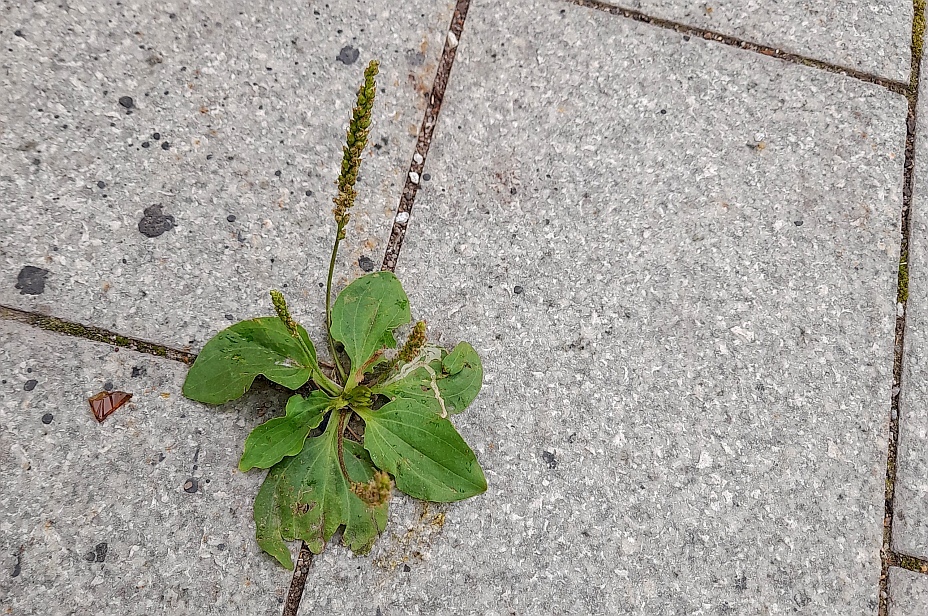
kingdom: Plantae
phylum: Tracheophyta
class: Magnoliopsida
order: Lamiales
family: Plantaginaceae
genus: Plantago
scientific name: Plantago major
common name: Common plantain
